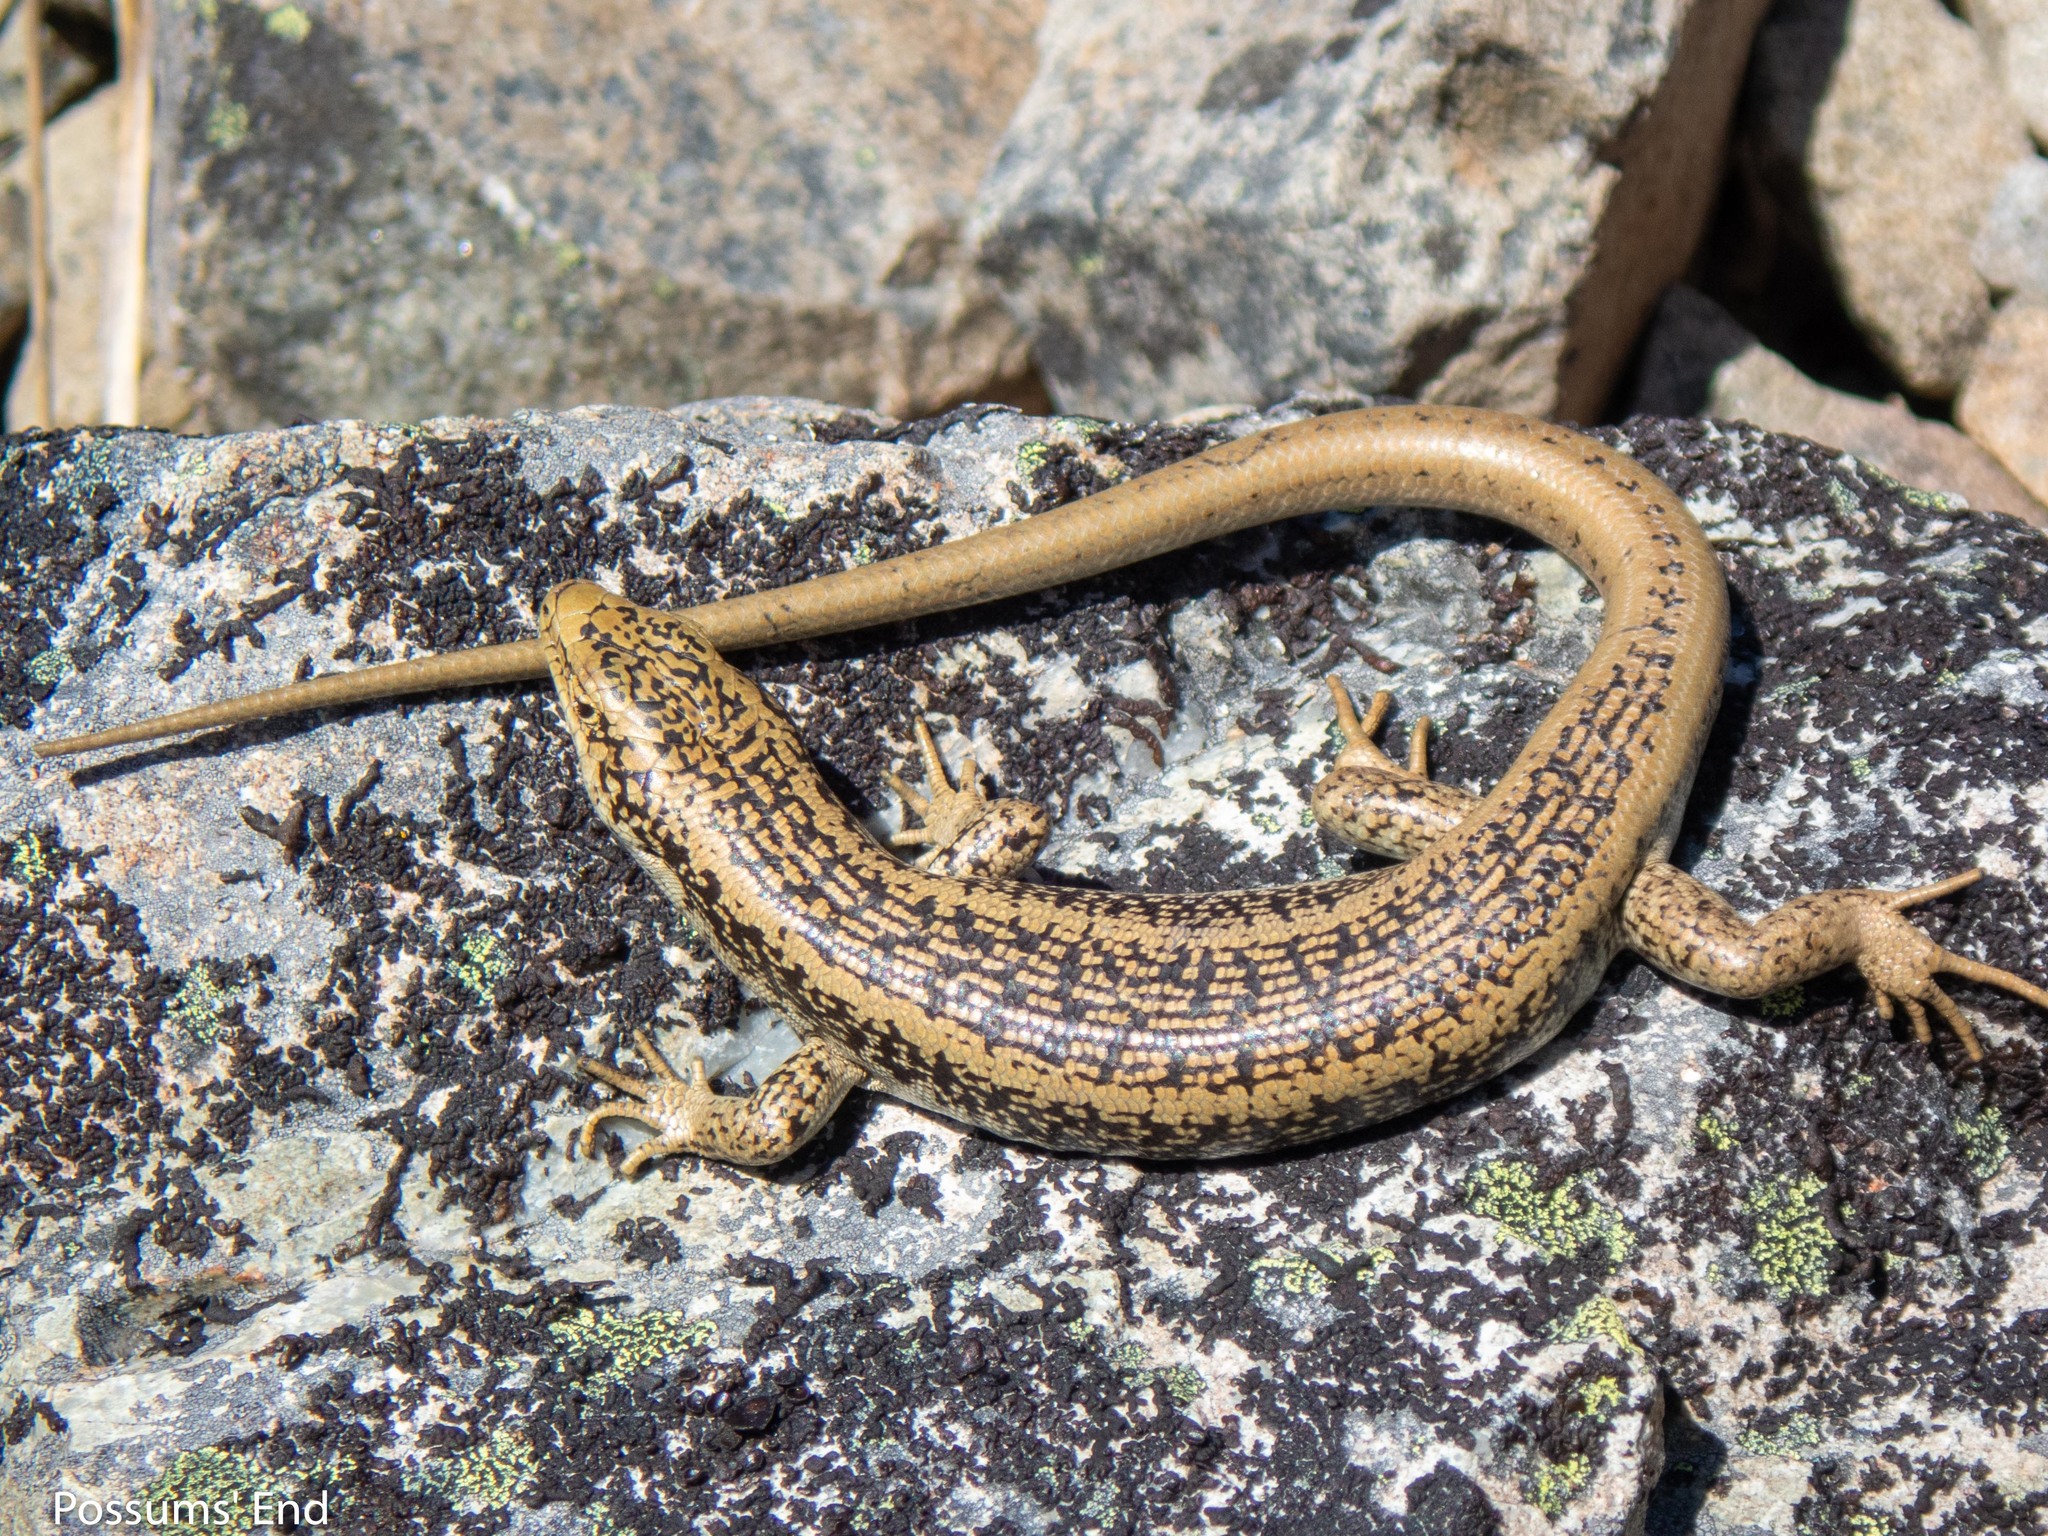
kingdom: Animalia
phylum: Chordata
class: Squamata
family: Scincidae
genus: Oligosoma
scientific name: Oligosoma waimatense
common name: Scree skink
